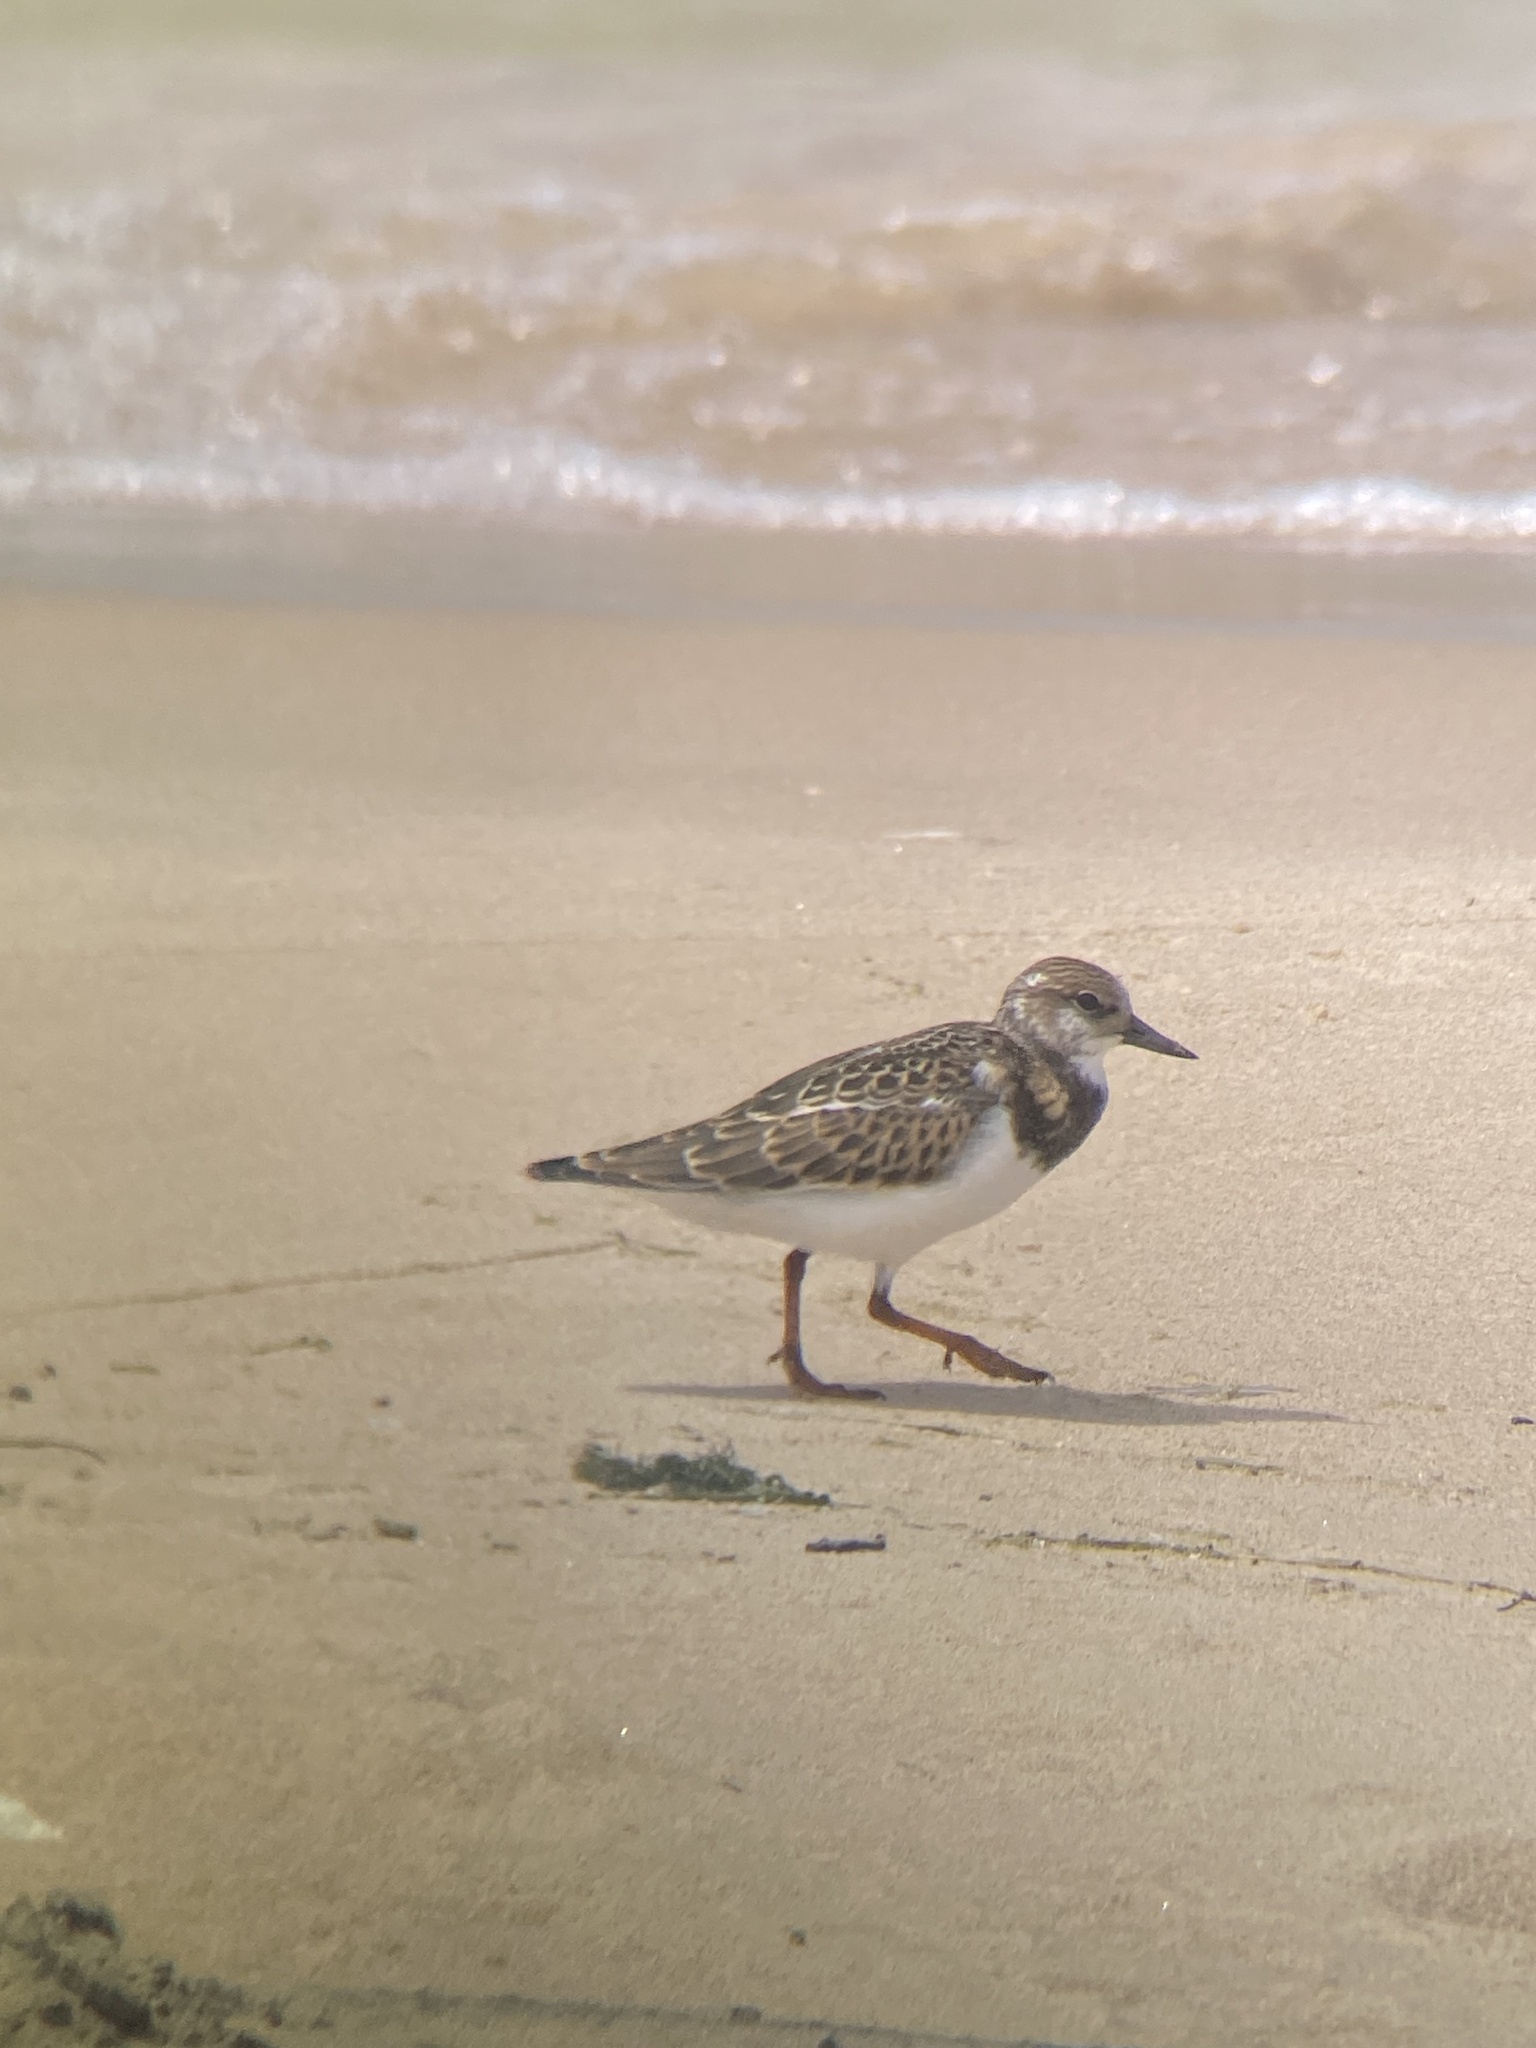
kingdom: Animalia
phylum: Chordata
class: Aves
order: Charadriiformes
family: Scolopacidae
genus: Arenaria
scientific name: Arenaria interpres
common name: Ruddy turnstone
